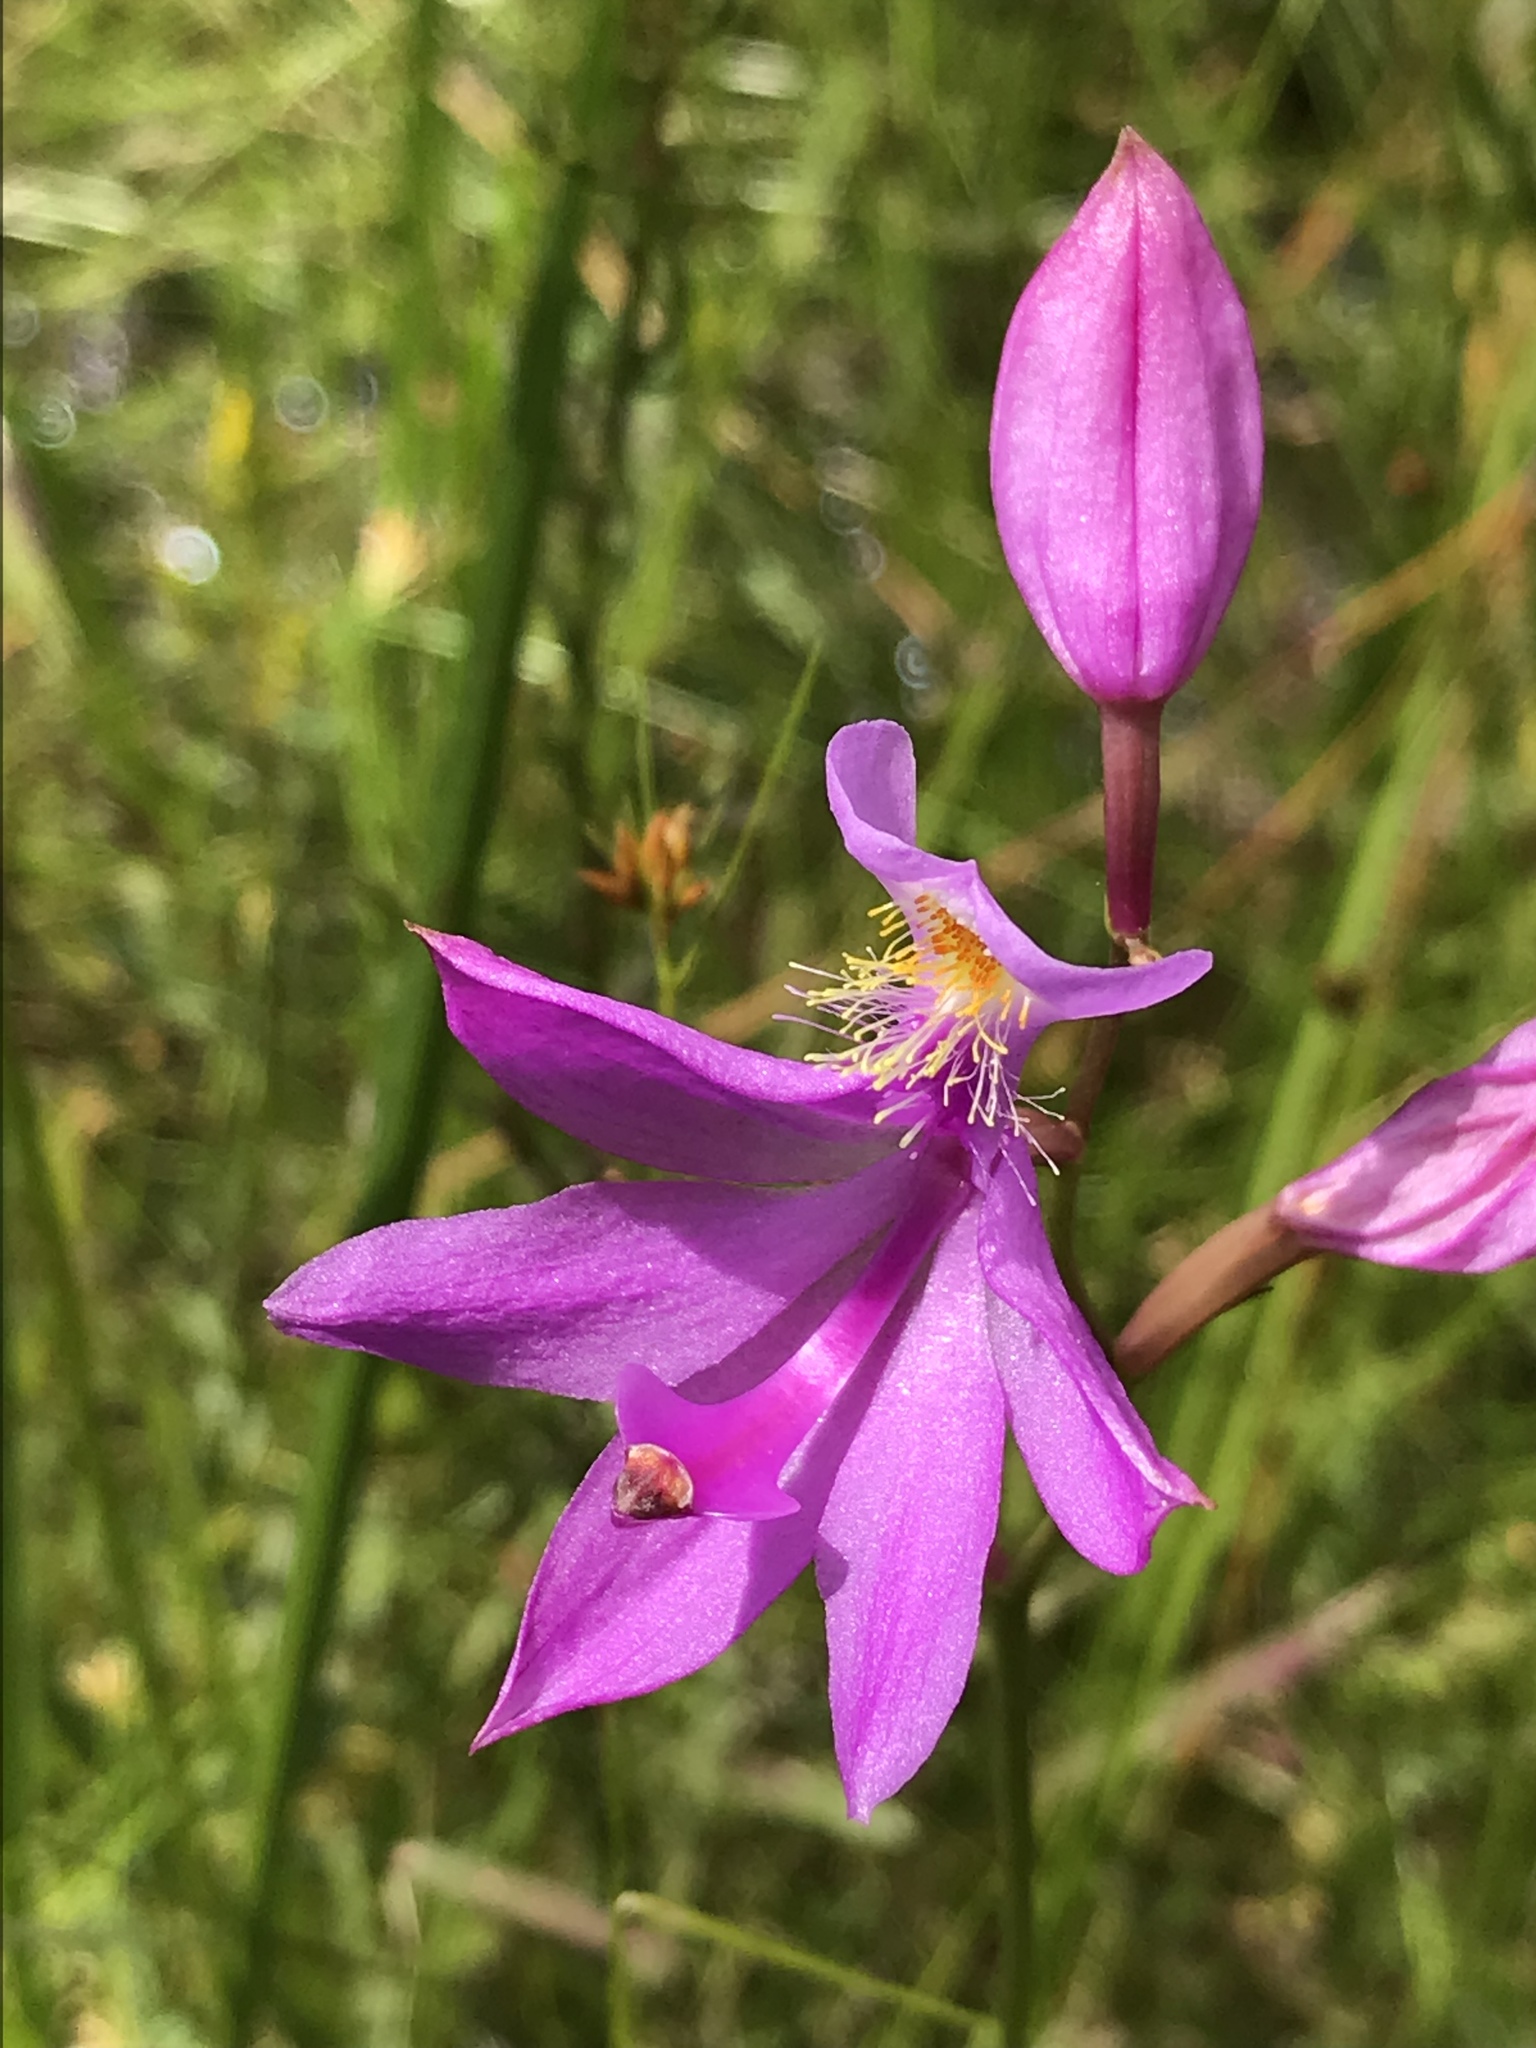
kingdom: Plantae
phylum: Tracheophyta
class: Liliopsida
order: Asparagales
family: Orchidaceae
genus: Calopogon
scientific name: Calopogon tuberosus
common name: Grass-pink
